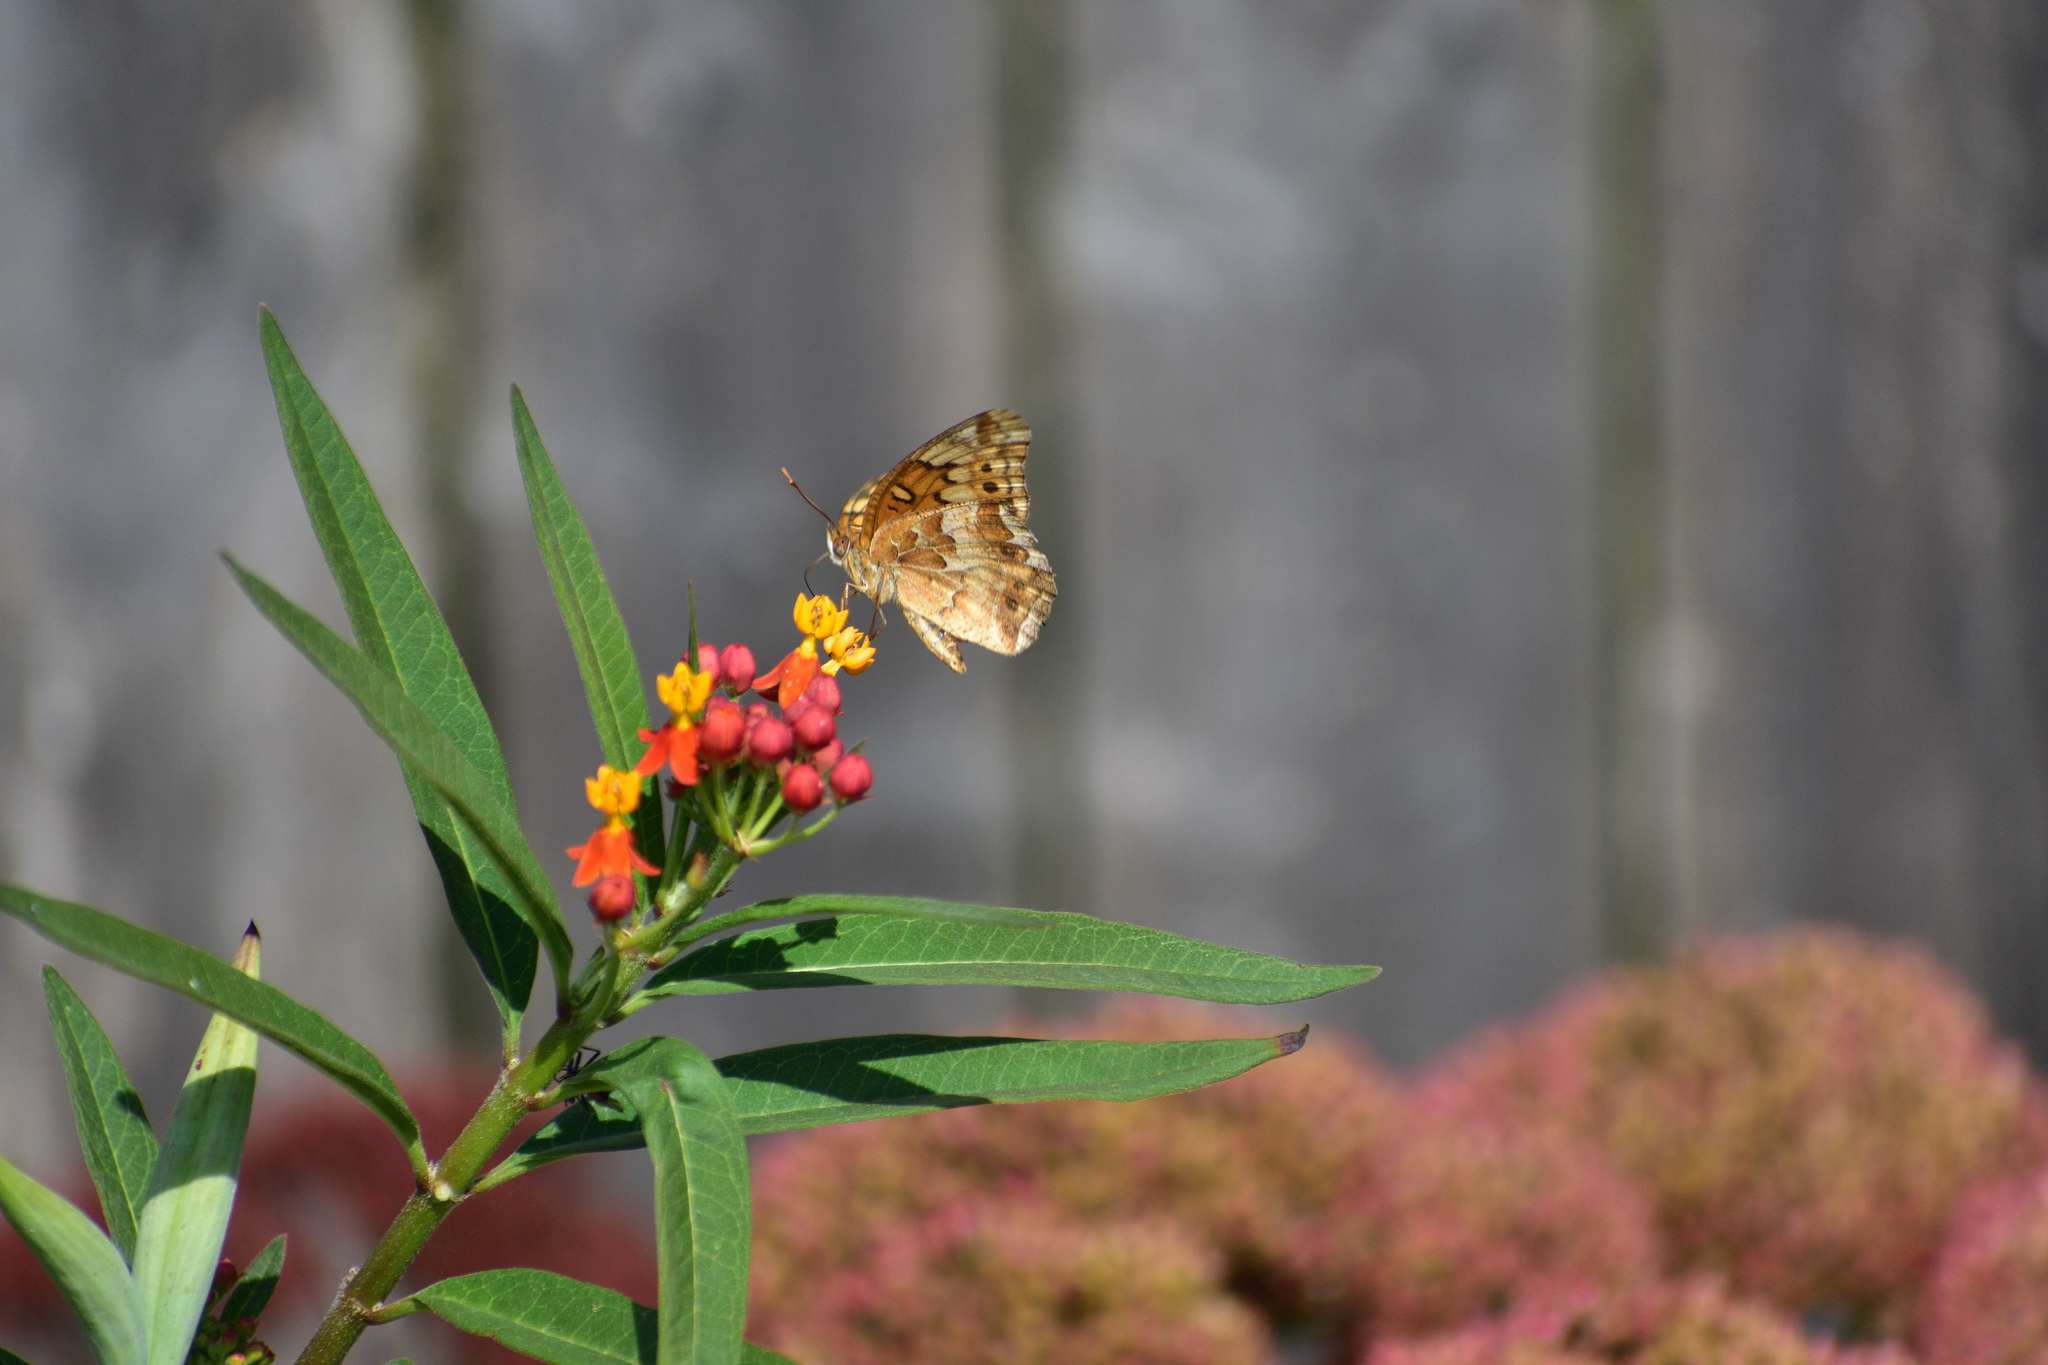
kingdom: Animalia
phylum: Arthropoda
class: Insecta
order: Lepidoptera
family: Nymphalidae
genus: Euptoieta
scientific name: Euptoieta claudia
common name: Variegated fritillary
